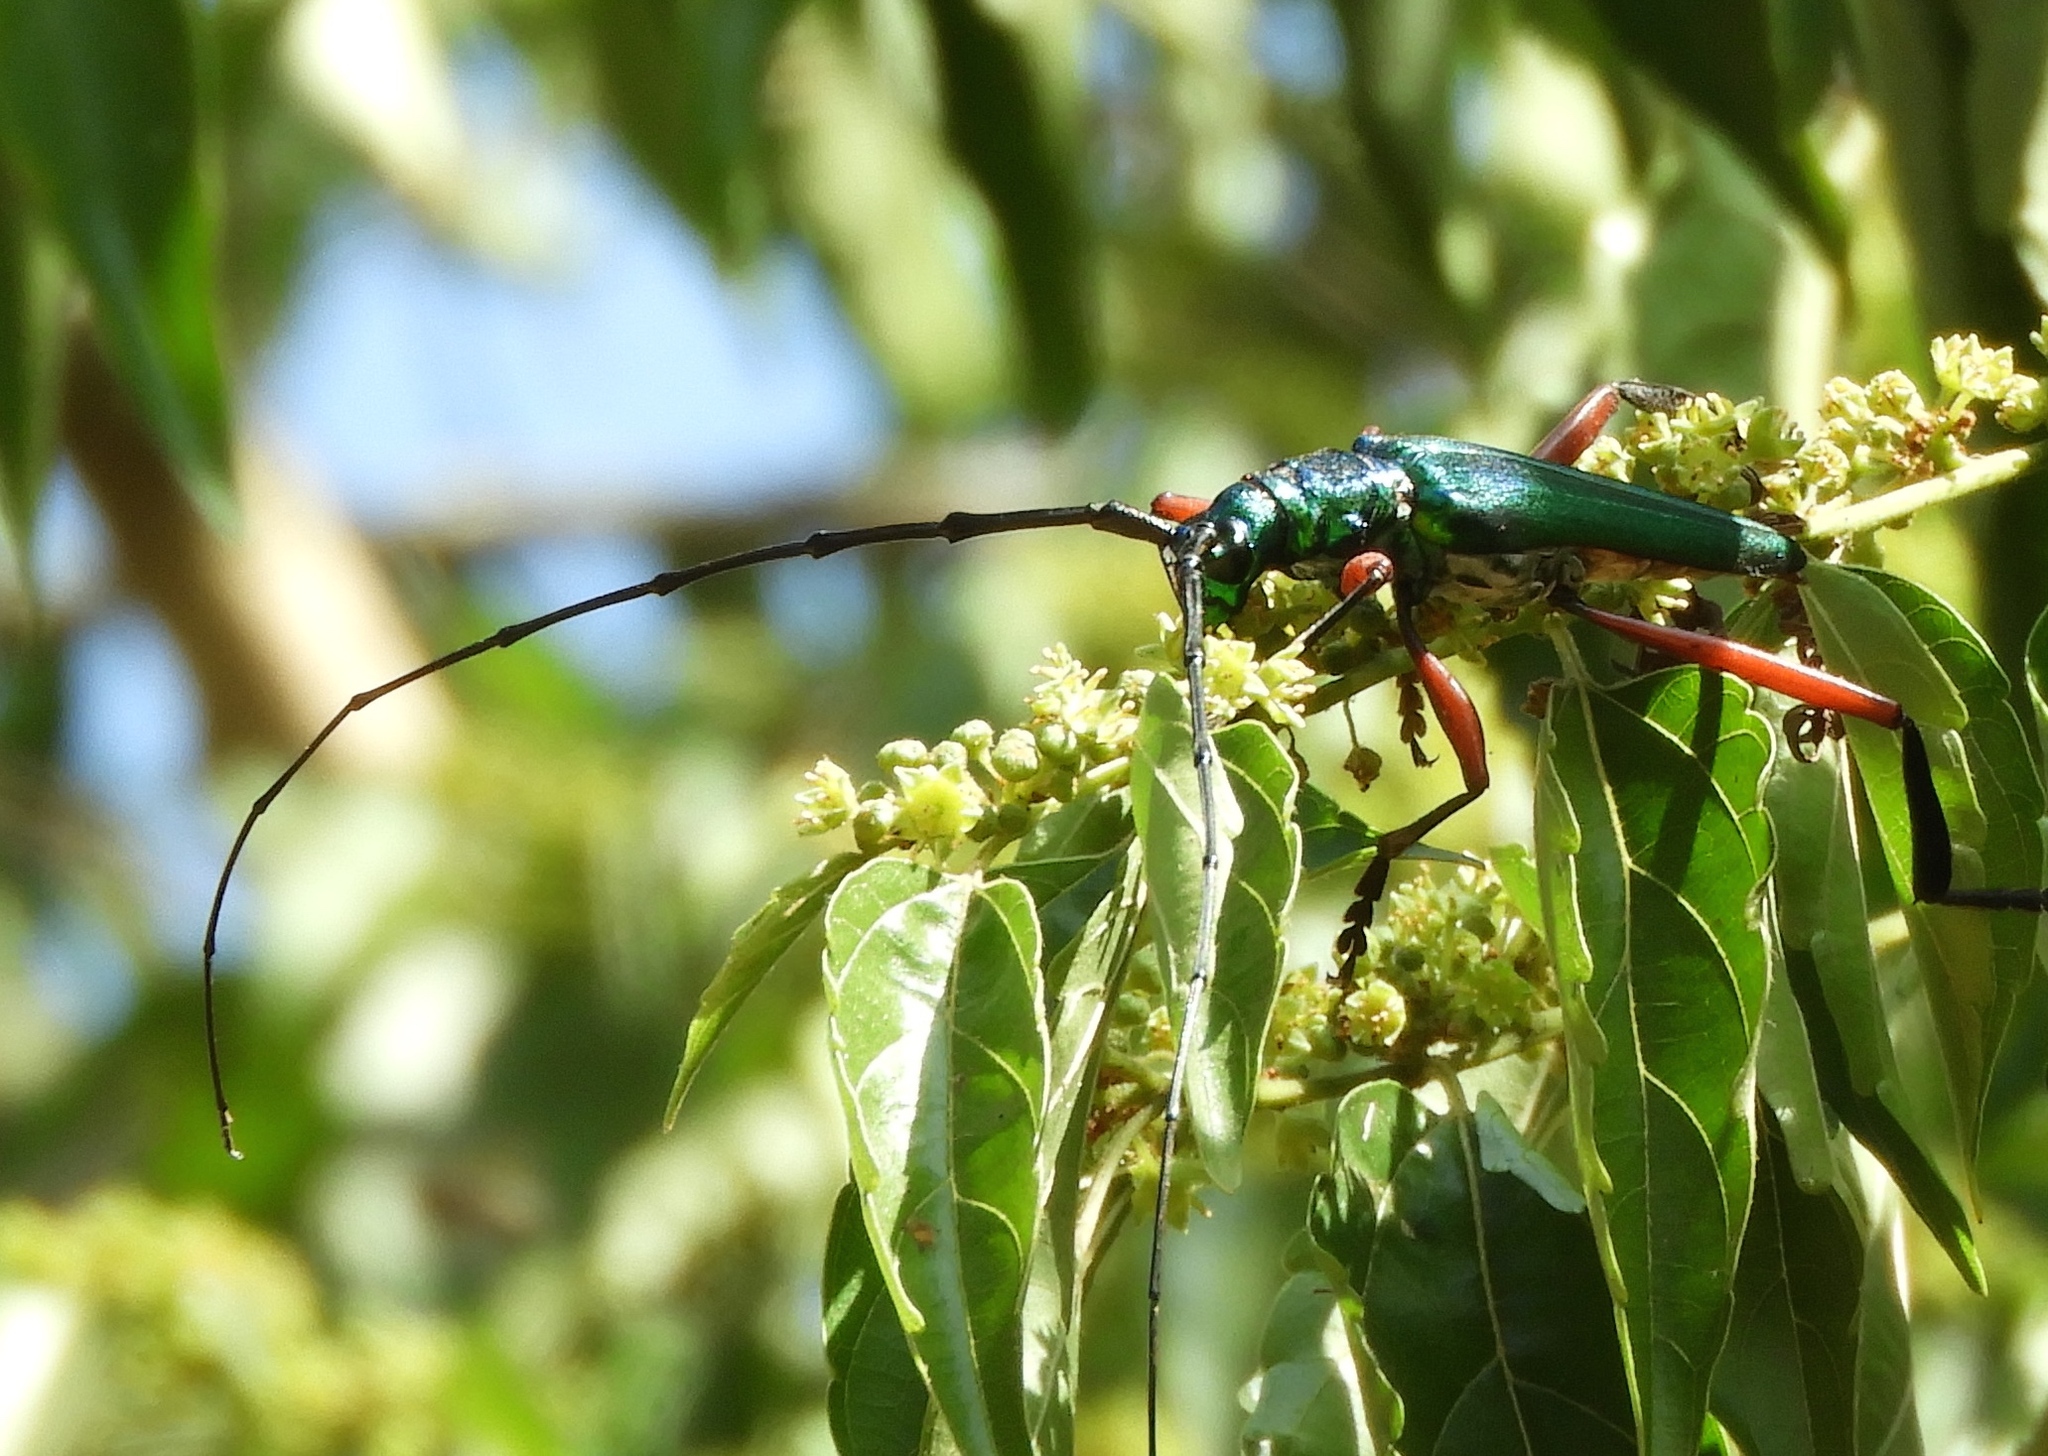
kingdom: Animalia
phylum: Arthropoda
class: Insecta
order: Coleoptera
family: Cerambycidae
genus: Plinthocoelium
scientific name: Plinthocoelium chilensis
